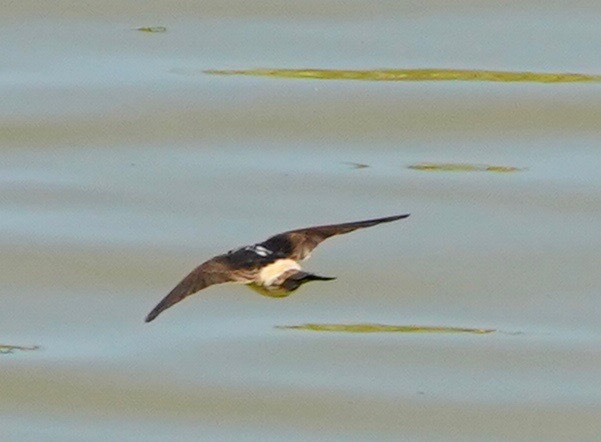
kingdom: Animalia
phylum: Chordata
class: Aves
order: Passeriformes
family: Hirundinidae
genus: Petrochelidon
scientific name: Petrochelidon pyrrhonota
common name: American cliff swallow
